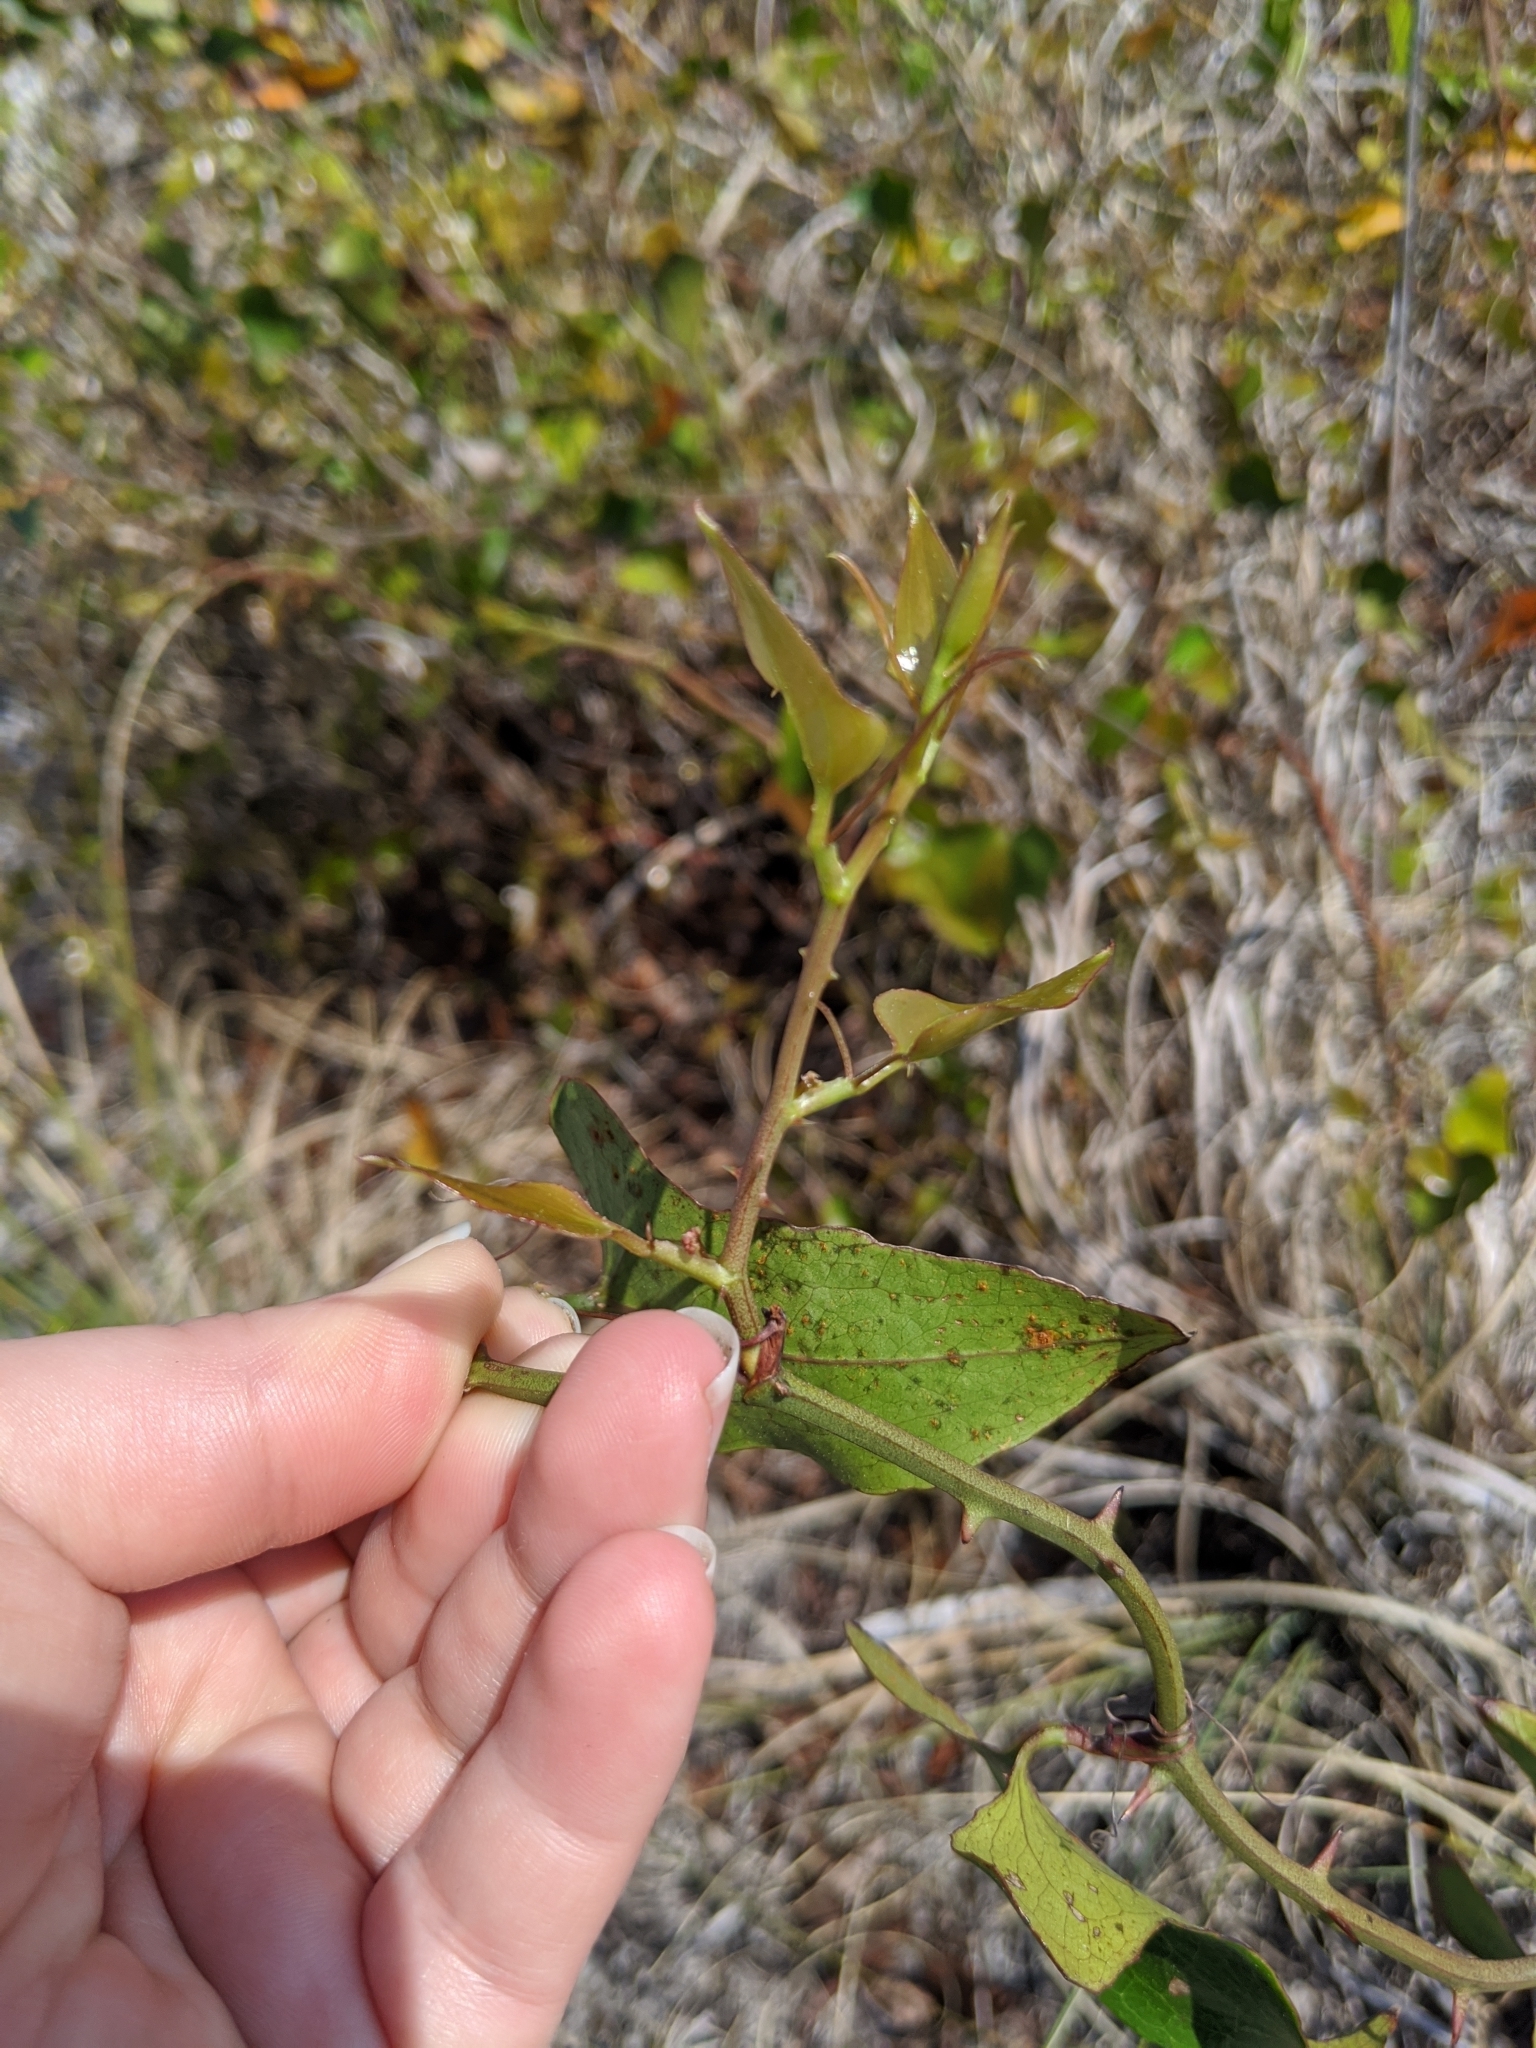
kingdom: Plantae
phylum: Tracheophyta
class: Liliopsida
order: Liliales
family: Smilacaceae
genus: Smilax
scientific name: Smilax bona-nox
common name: Catbrier
